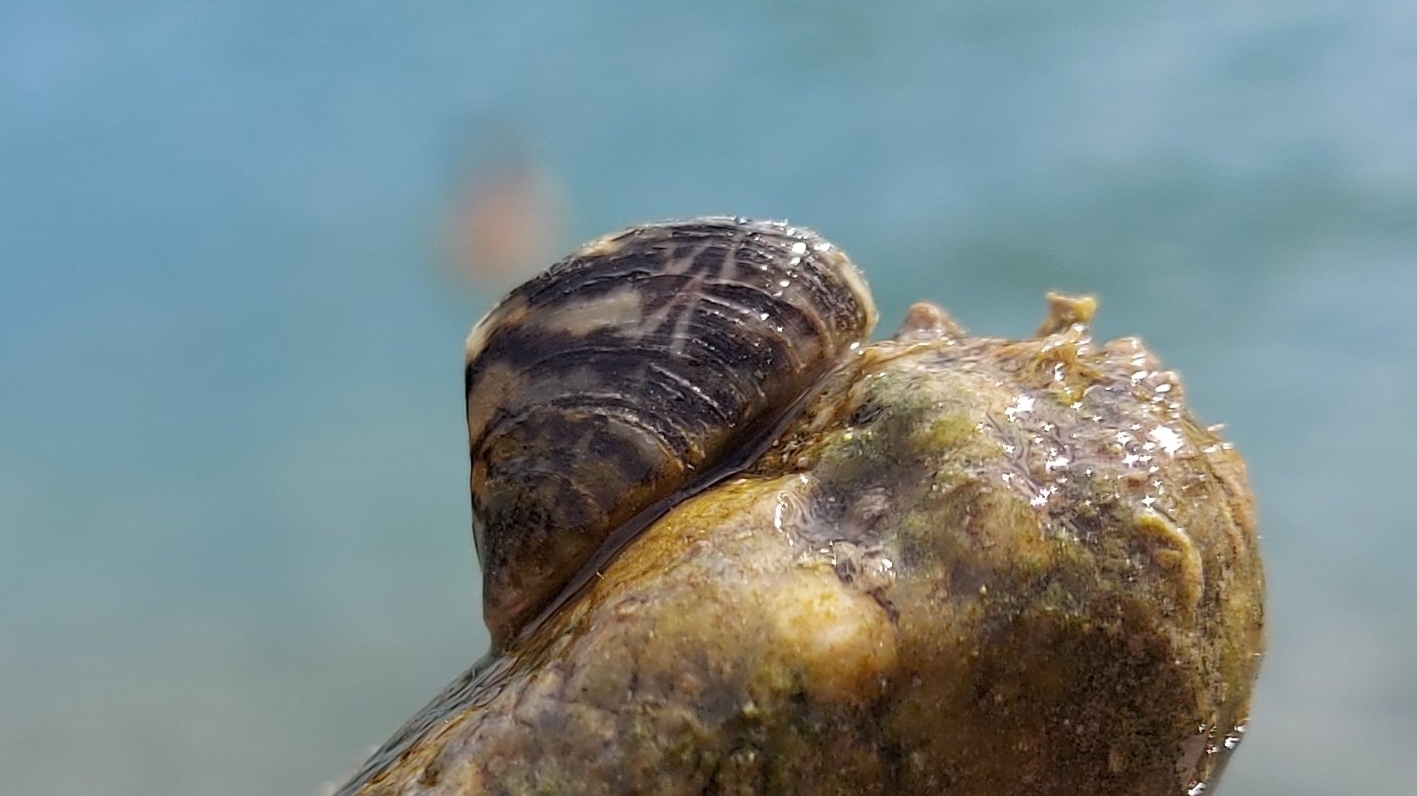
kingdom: Animalia
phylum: Mollusca
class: Bivalvia
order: Myida
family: Dreissenidae
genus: Dreissena
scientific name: Dreissena polymorpha
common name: Zebra mussel
